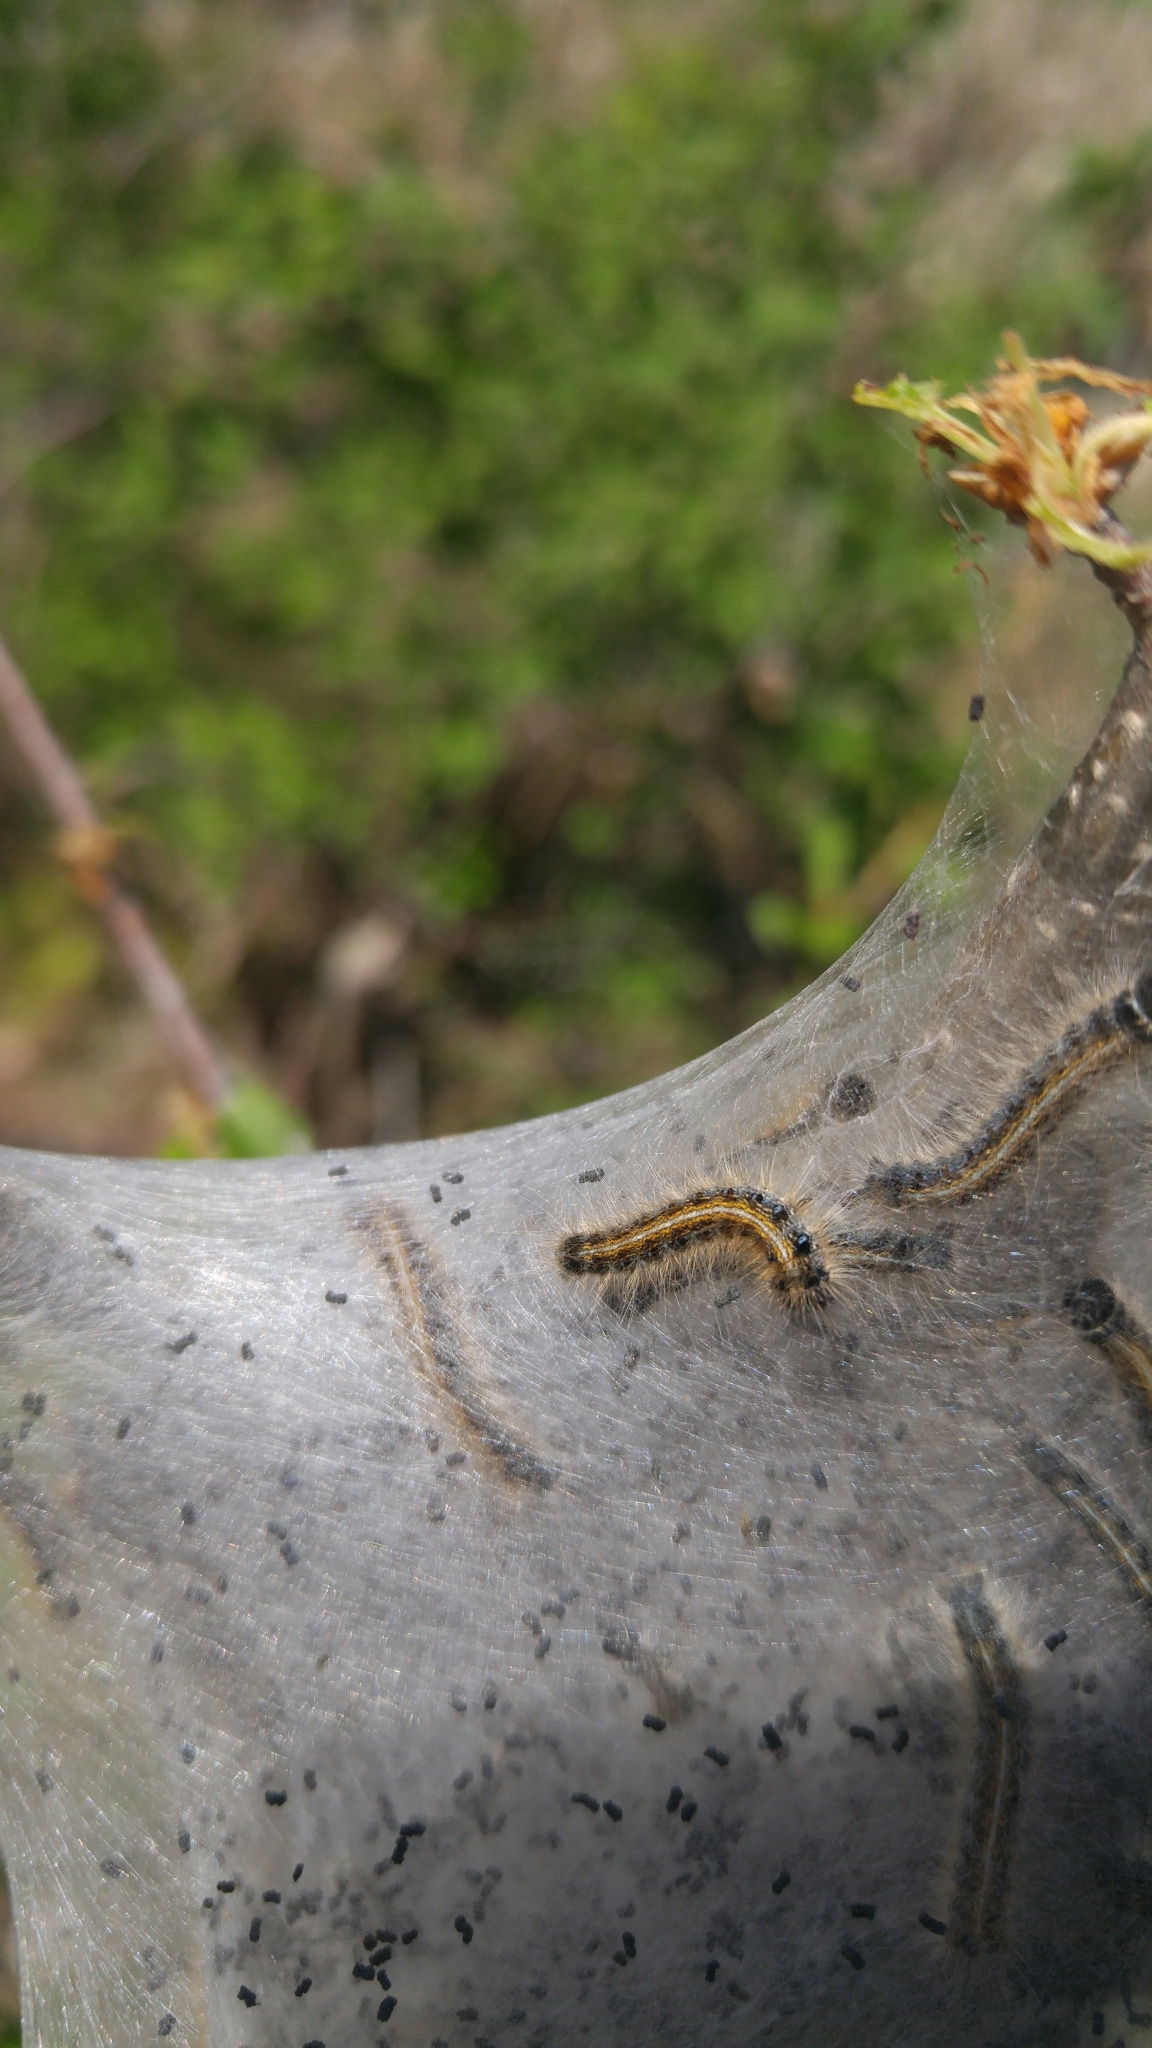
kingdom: Animalia
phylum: Arthropoda
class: Insecta
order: Lepidoptera
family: Lasiocampidae
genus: Malacosoma
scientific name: Malacosoma americana
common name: Eastern tent caterpillar moth
